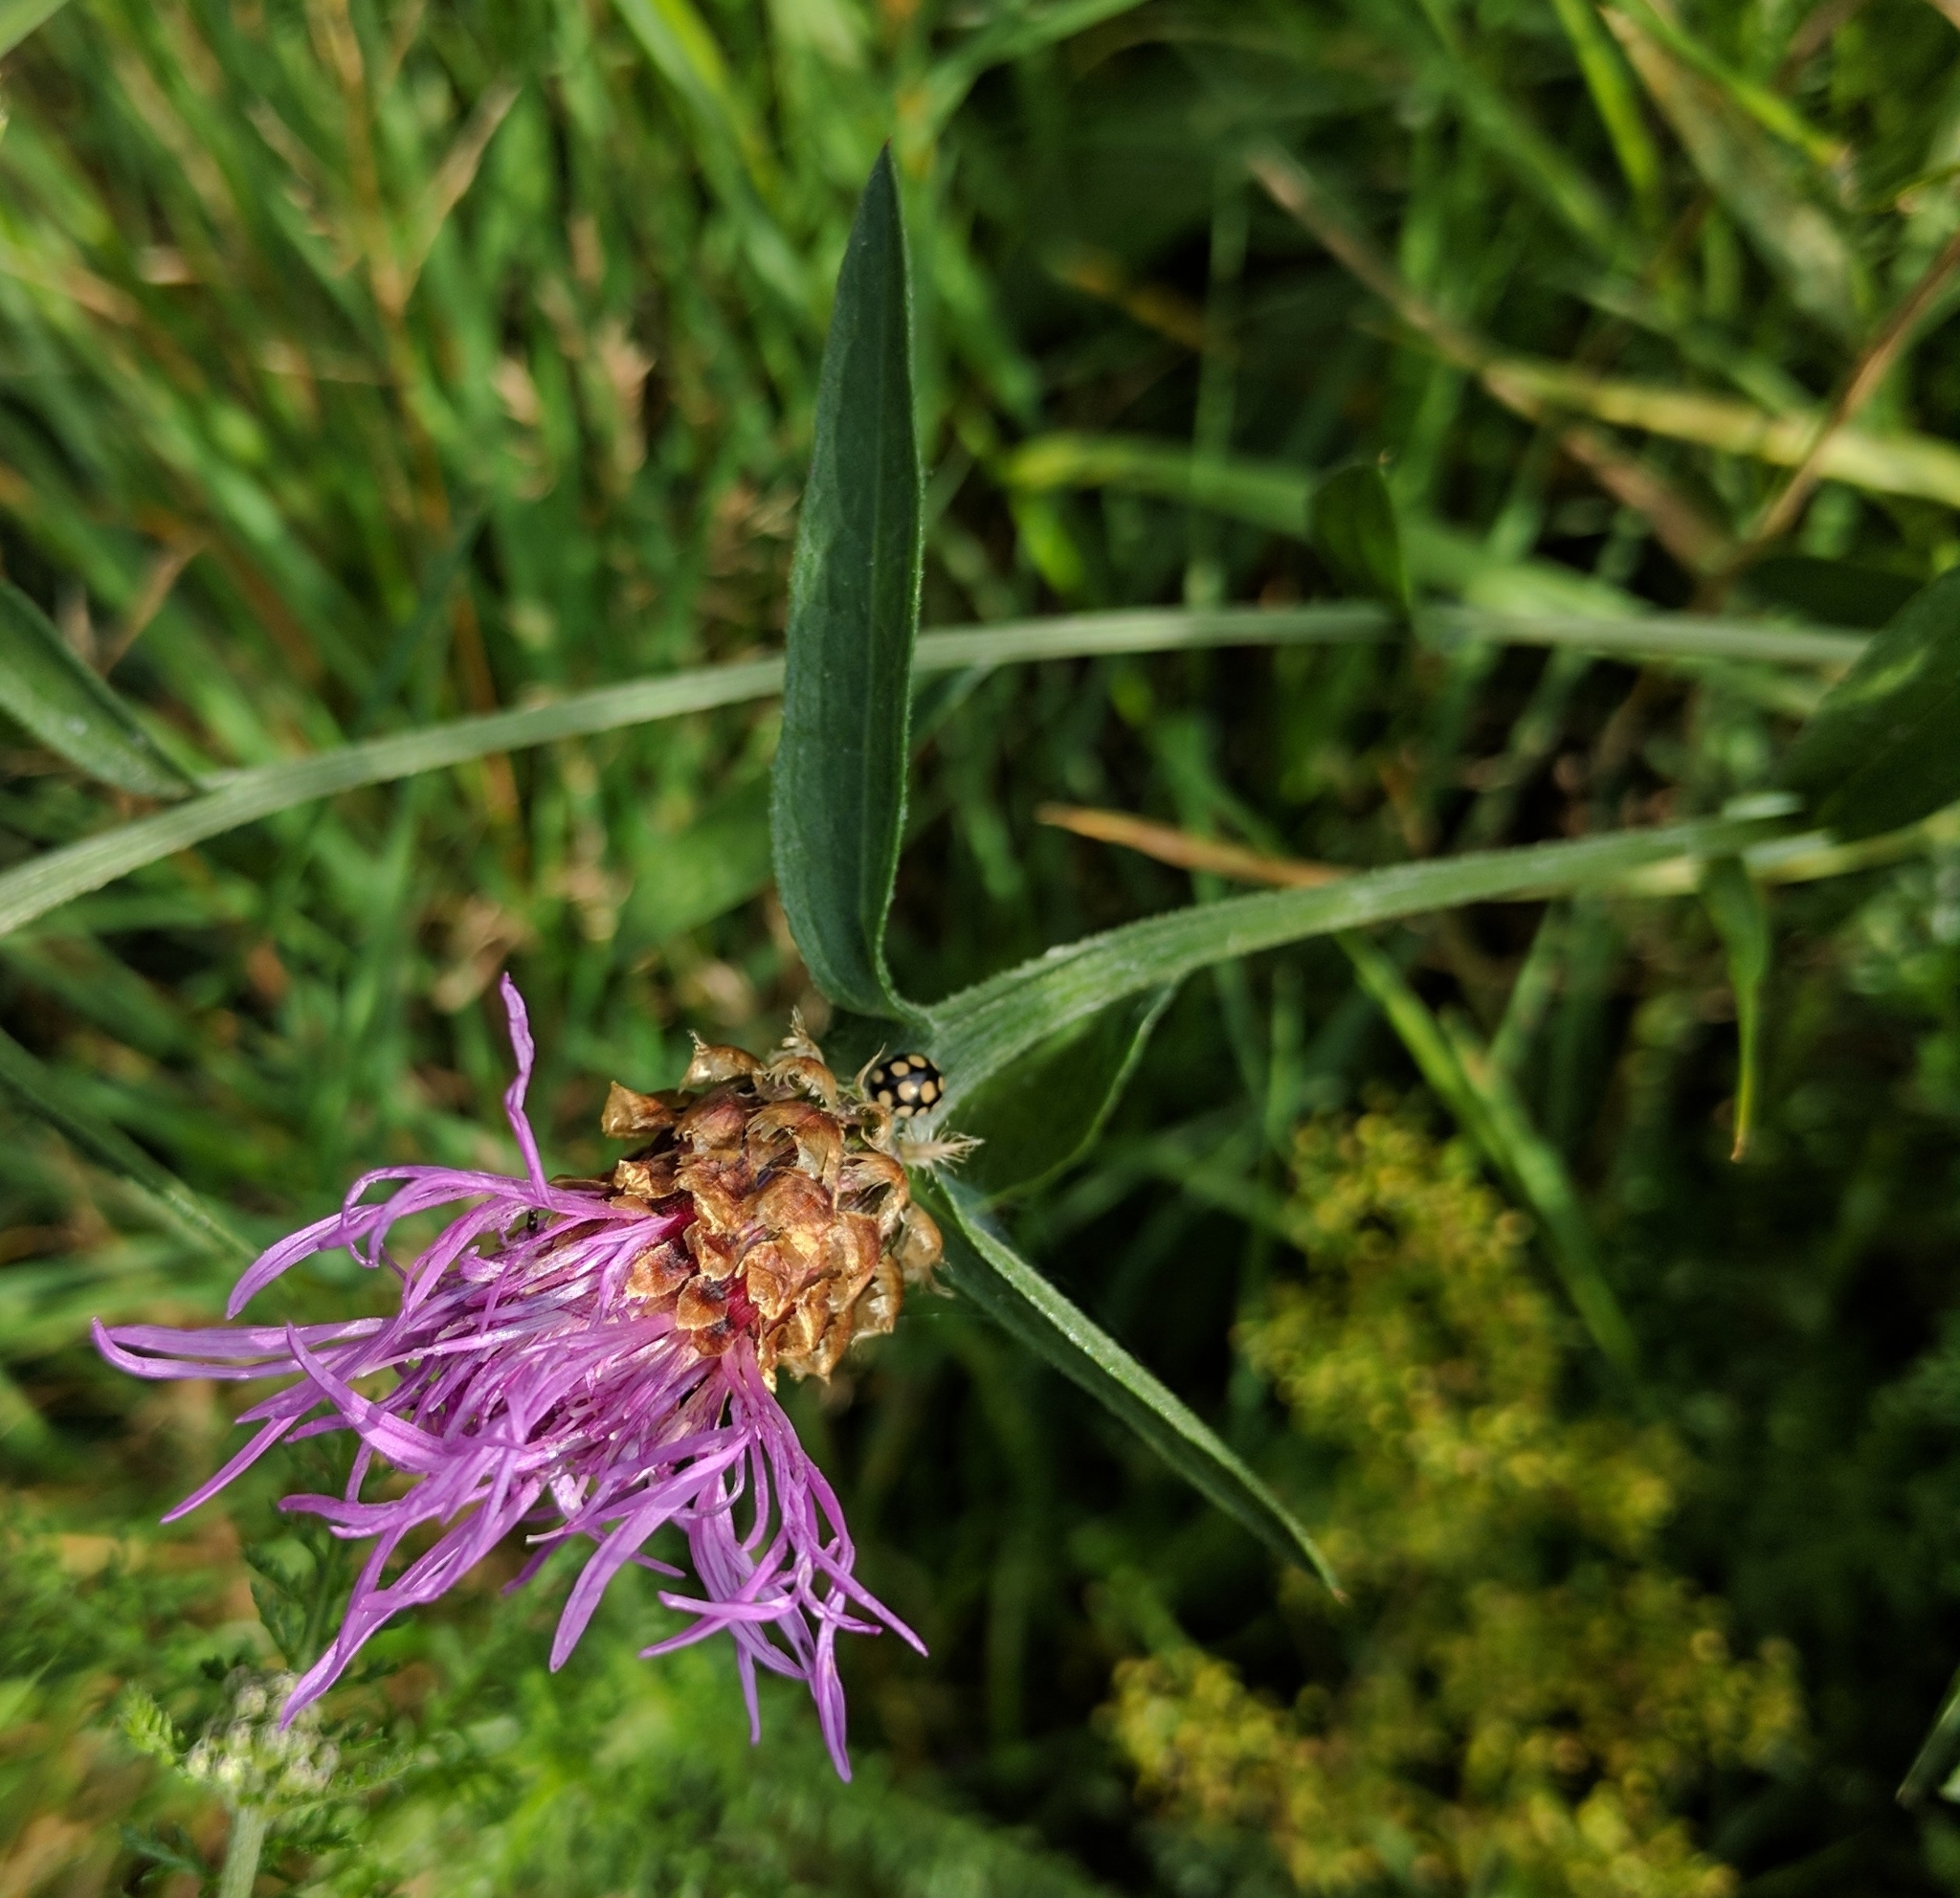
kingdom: Plantae
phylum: Tracheophyta
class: Magnoliopsida
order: Asterales
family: Asteraceae
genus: Centaurea
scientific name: Centaurea jacea
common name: Brown knapweed
